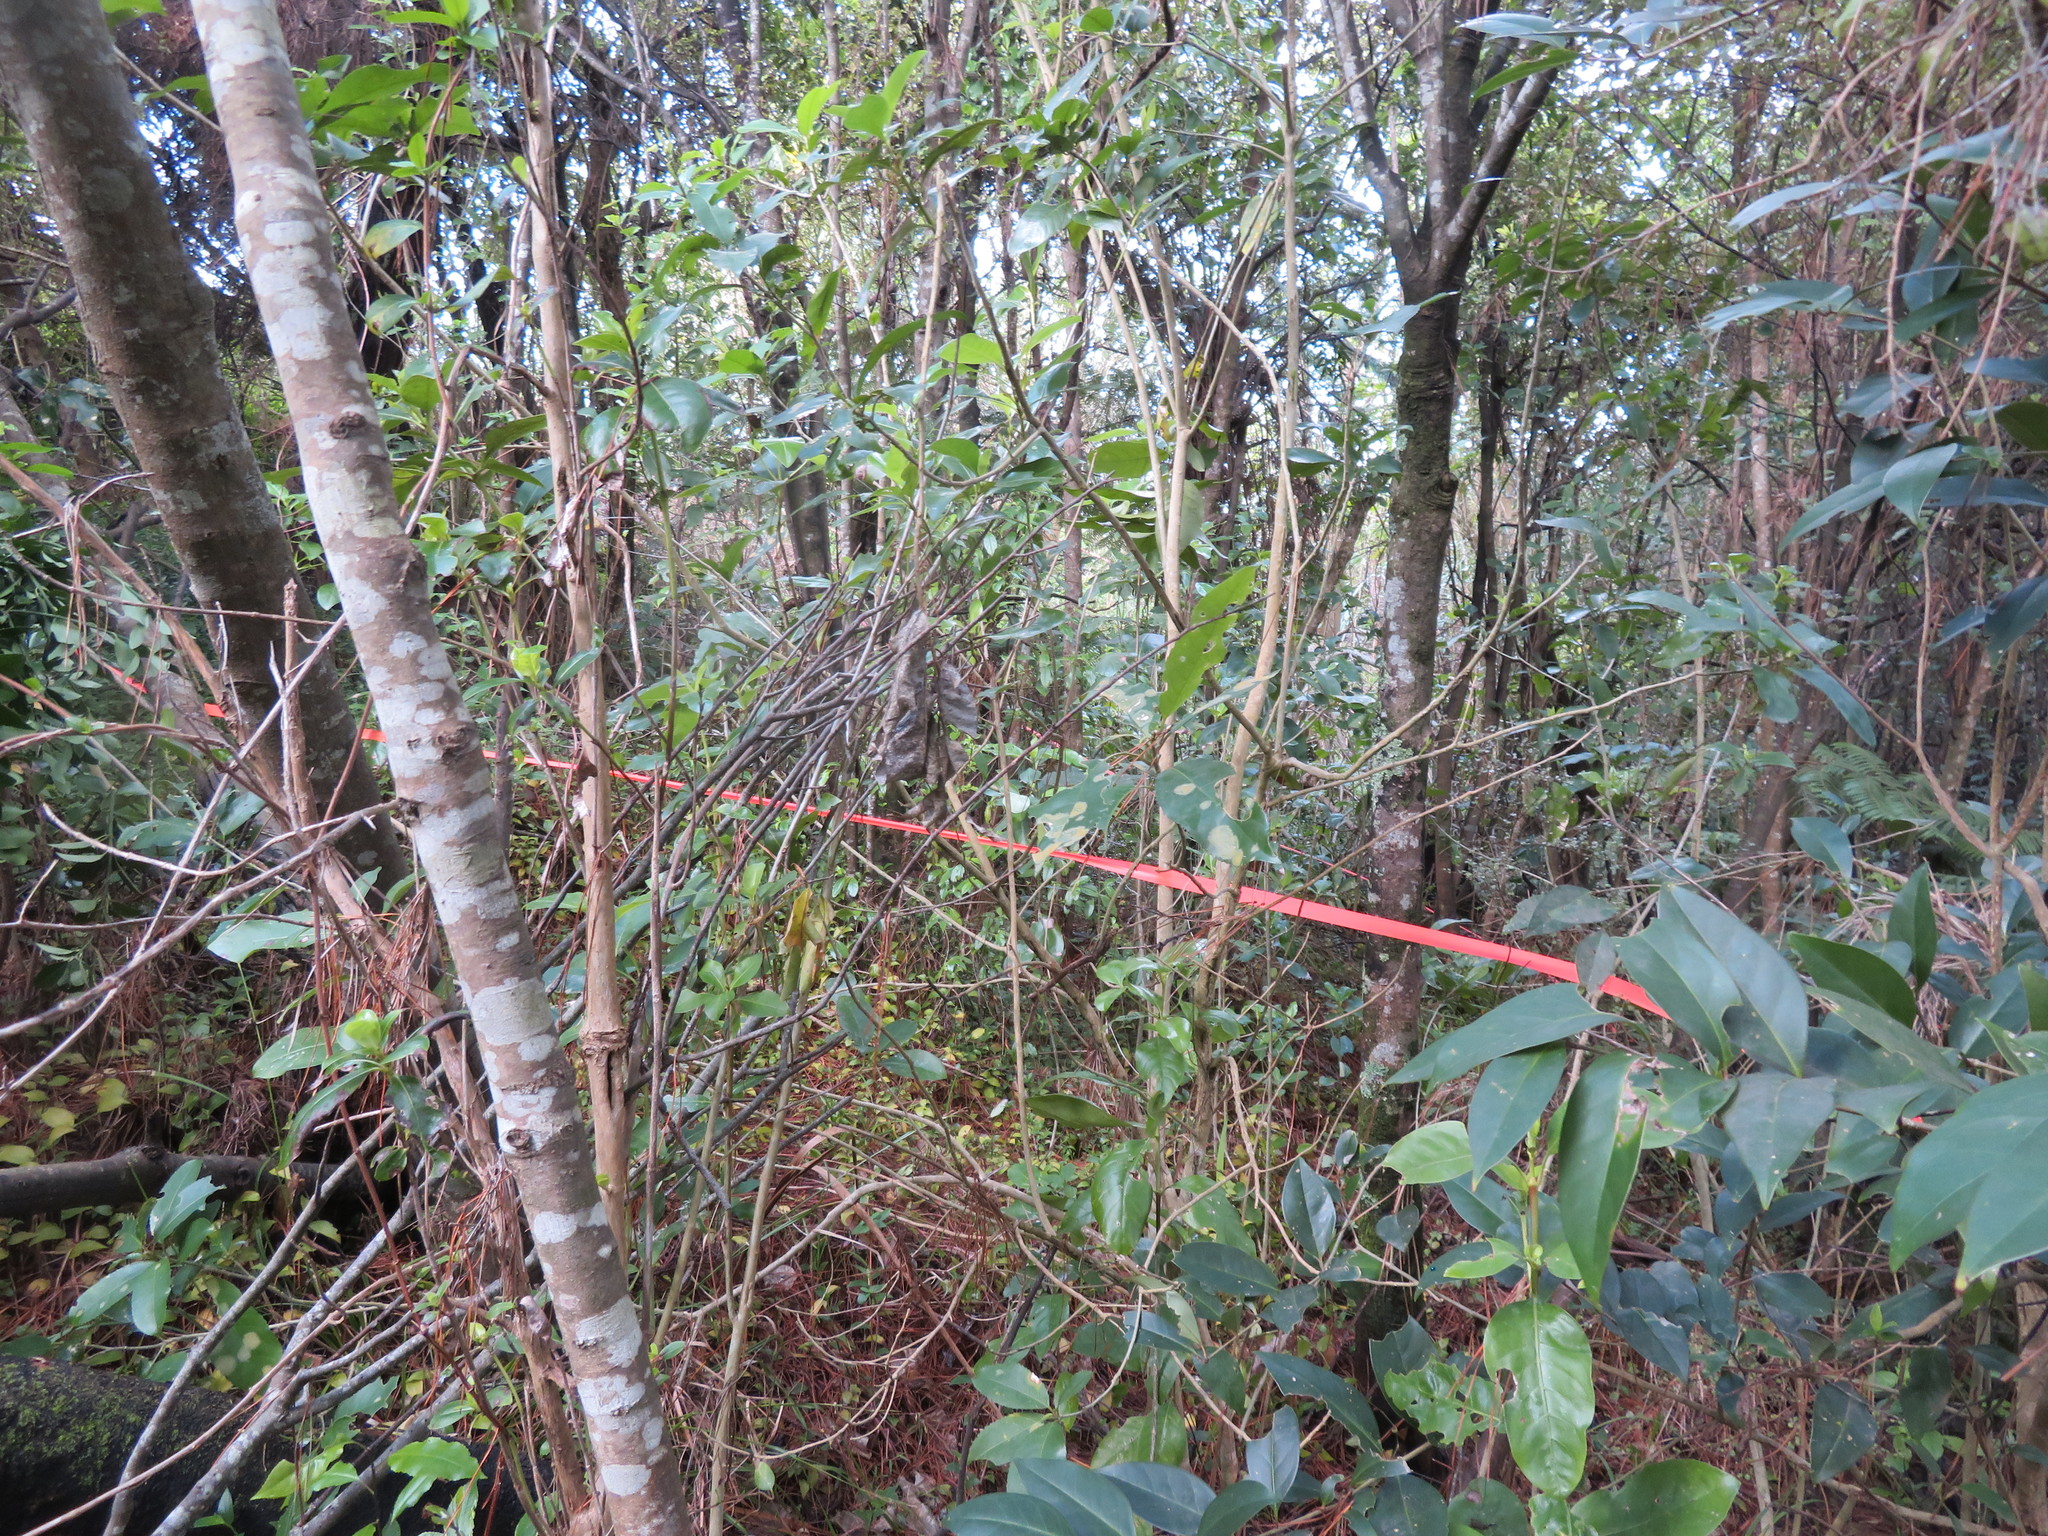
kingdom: Plantae
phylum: Tracheophyta
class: Magnoliopsida
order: Lamiales
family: Oleaceae
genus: Ligustrum
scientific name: Ligustrum lucidum
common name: Glossy privet
